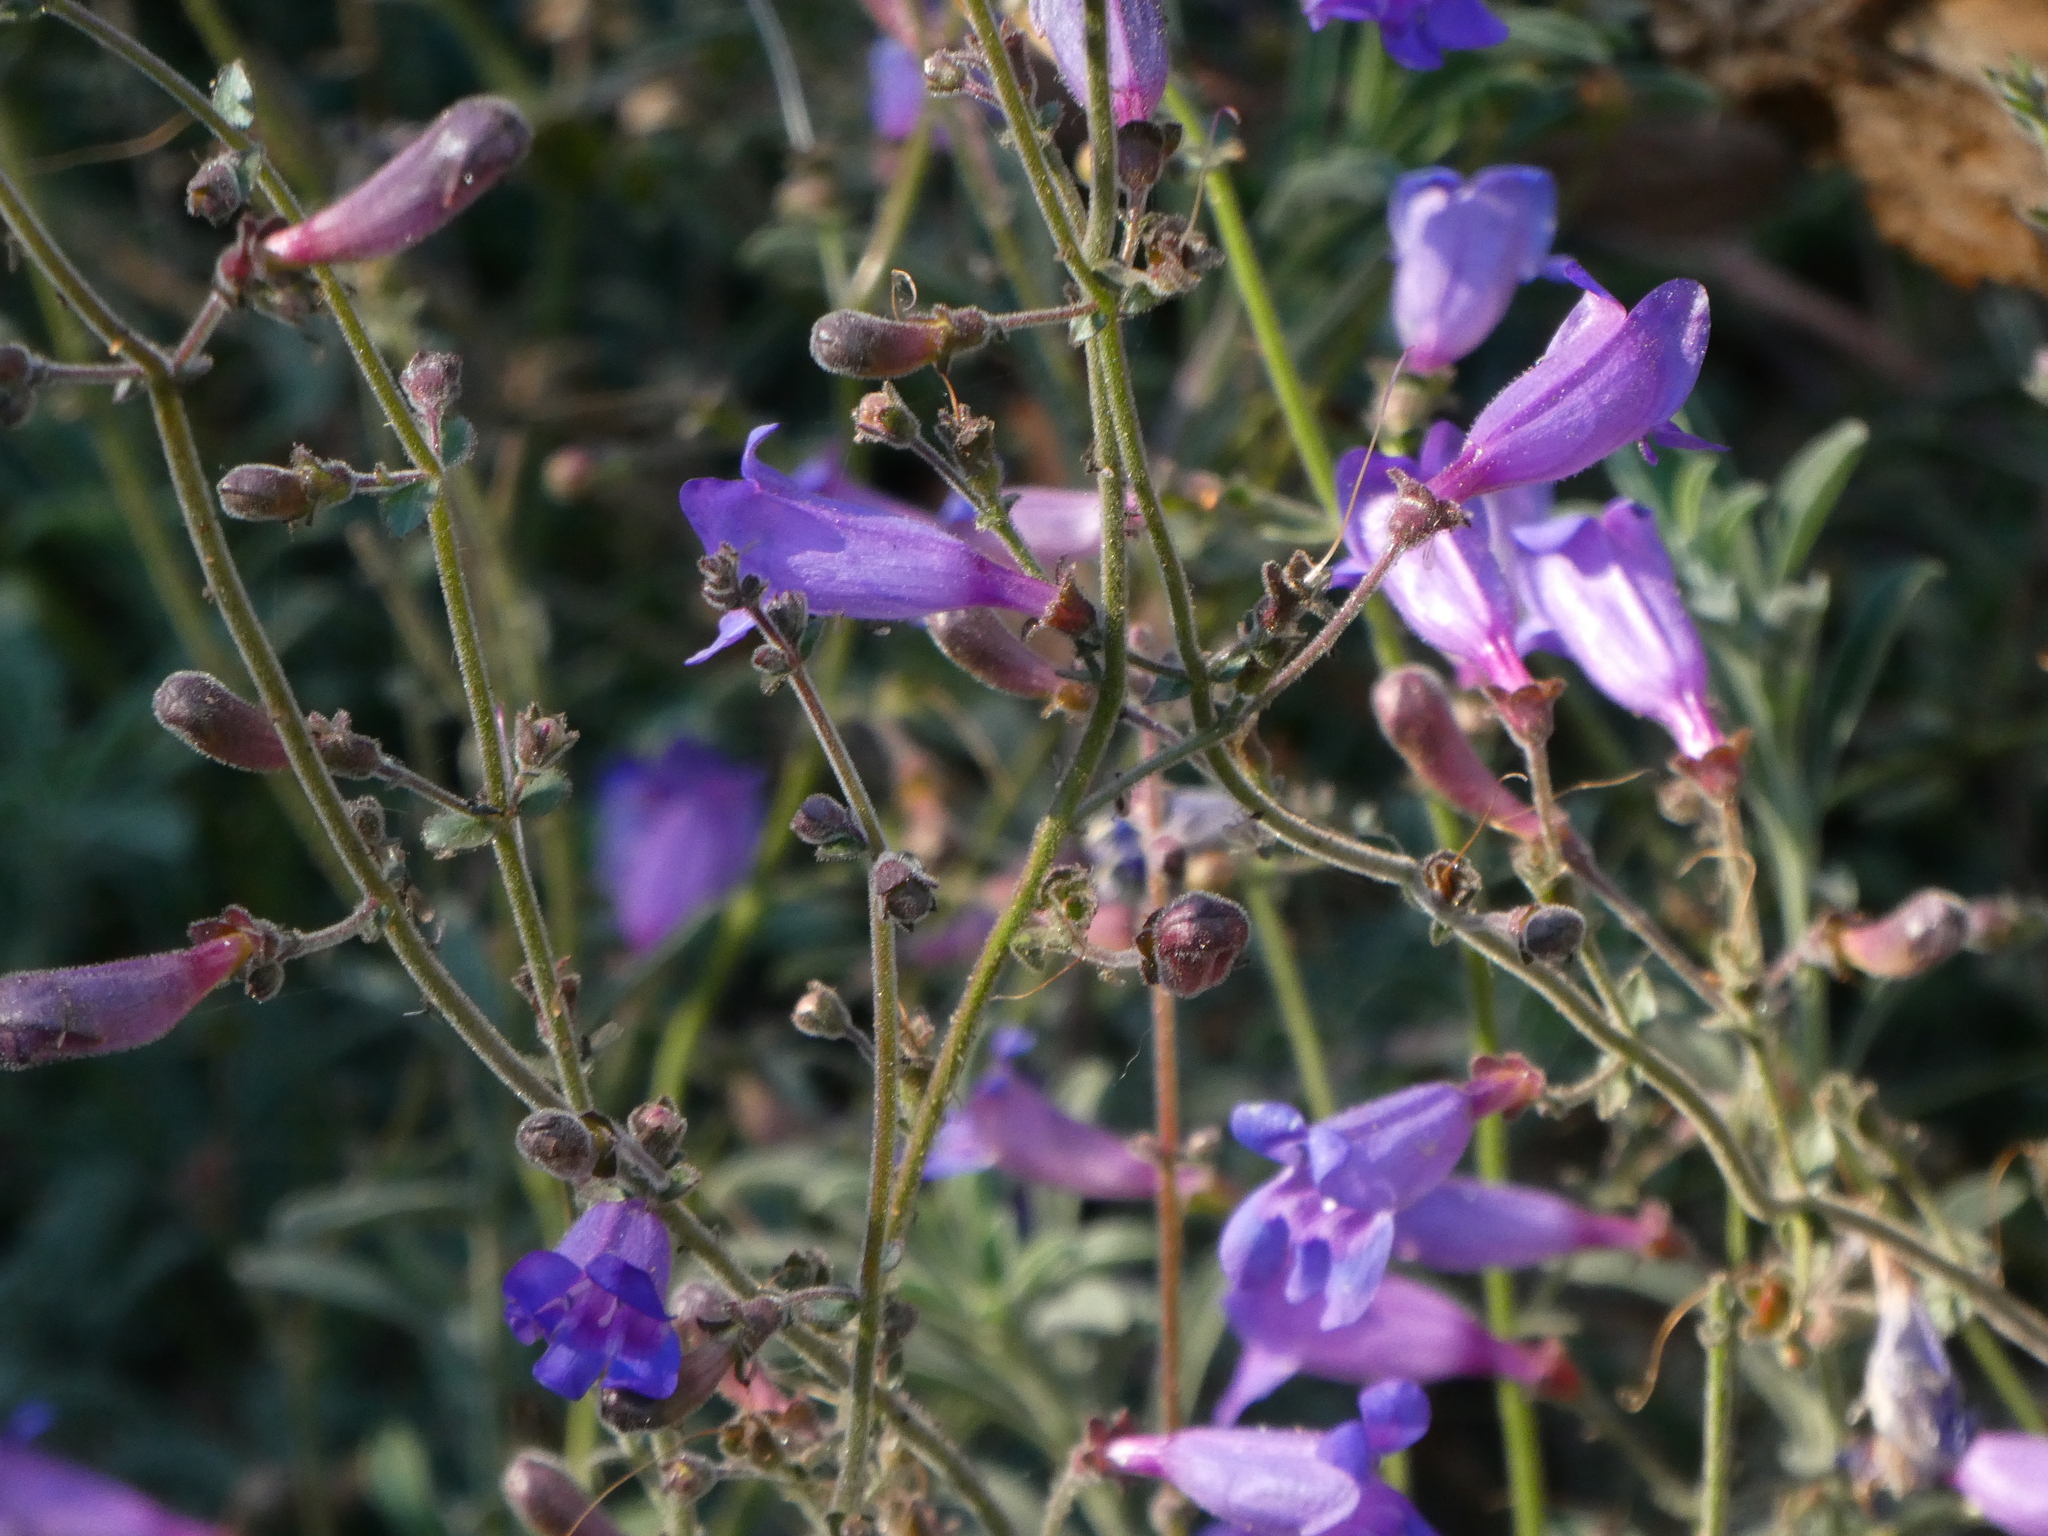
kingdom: Plantae
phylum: Tracheophyta
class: Magnoliopsida
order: Lamiales
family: Plantaginaceae
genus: Penstemon
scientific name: Penstemon laetus
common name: Gay penstemon
